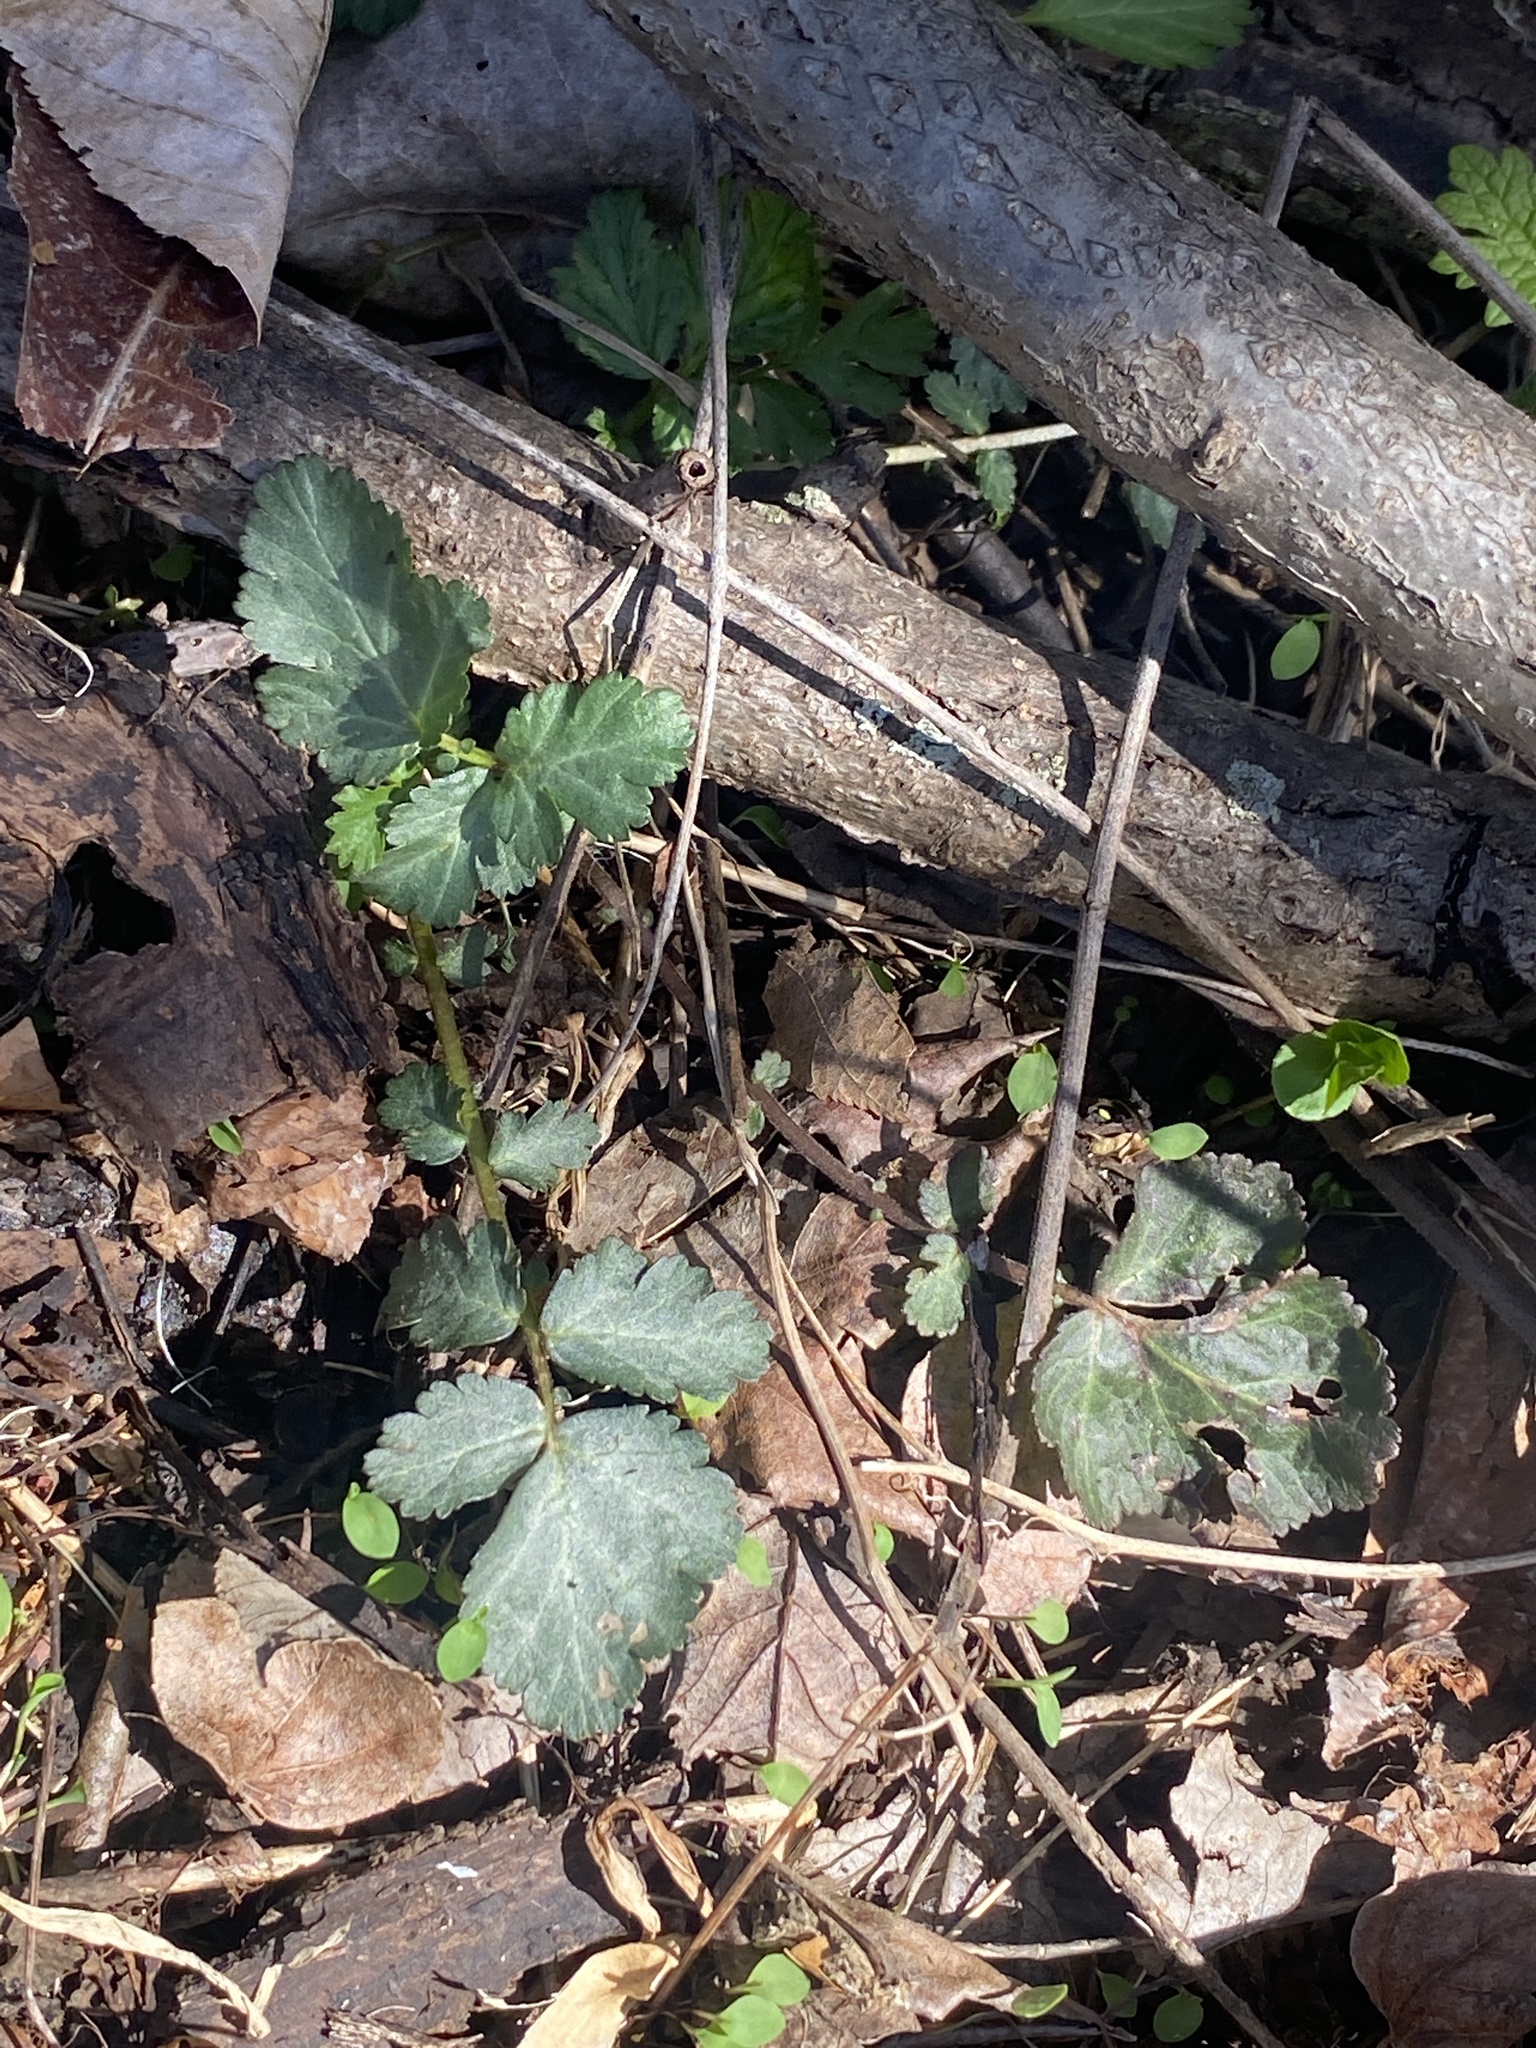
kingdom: Plantae
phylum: Tracheophyta
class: Magnoliopsida
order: Rosales
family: Rosaceae
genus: Geum
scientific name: Geum canadense
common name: White avens
